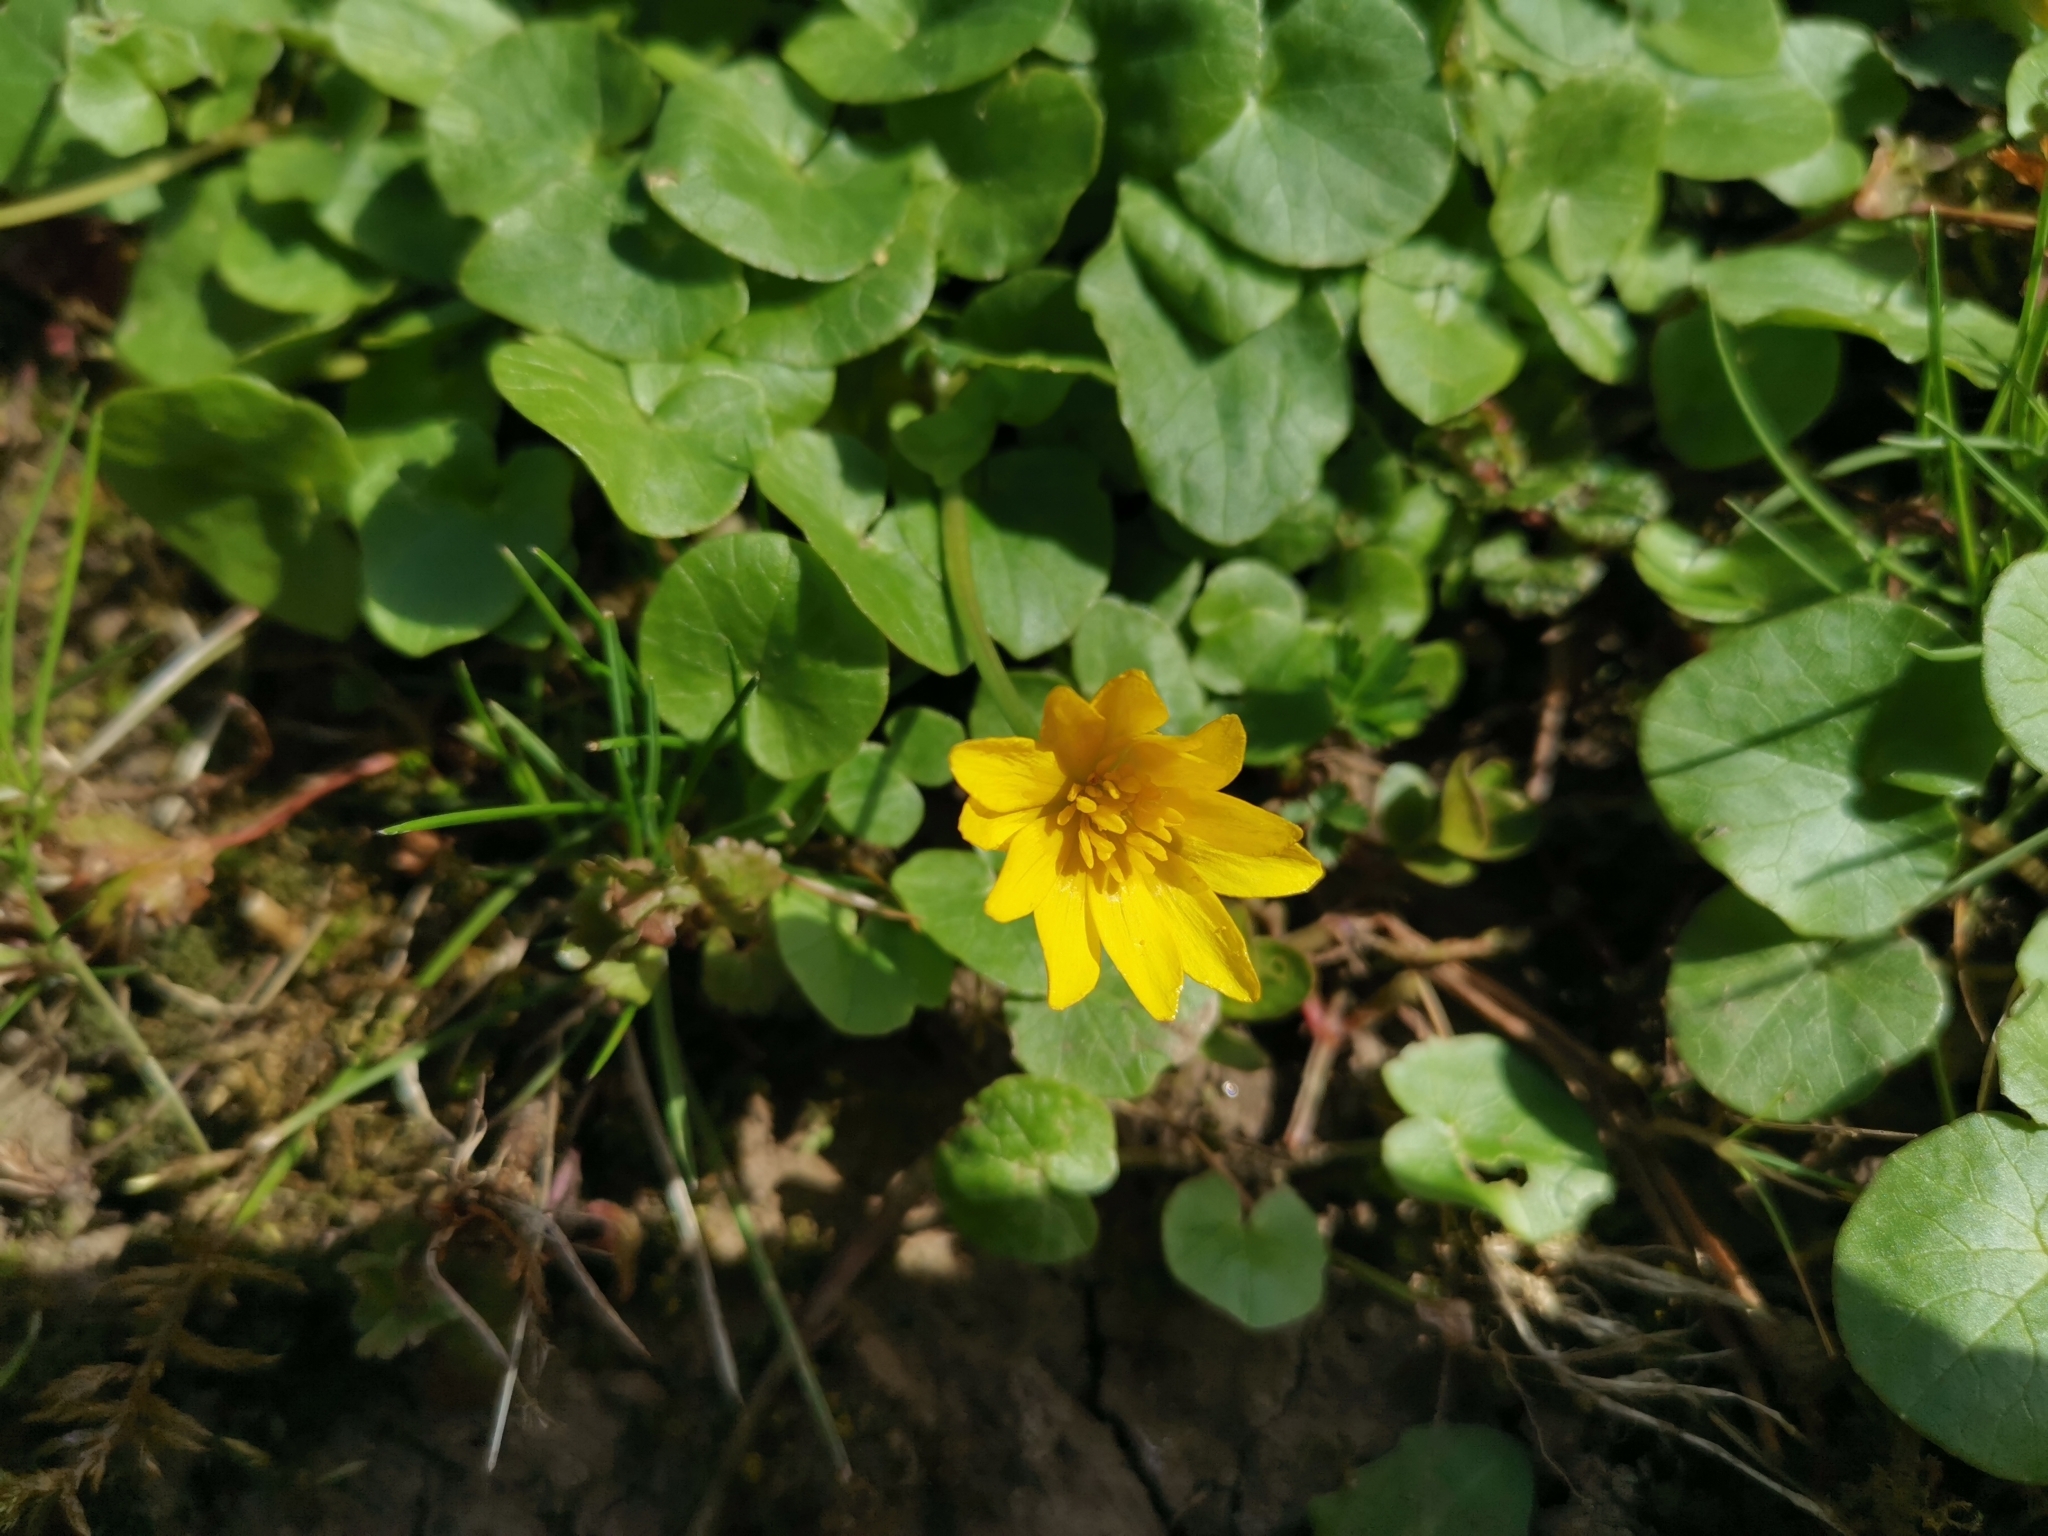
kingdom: Plantae
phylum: Tracheophyta
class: Magnoliopsida
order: Ranunculales
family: Ranunculaceae
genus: Ficaria
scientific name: Ficaria verna
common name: Lesser celandine
